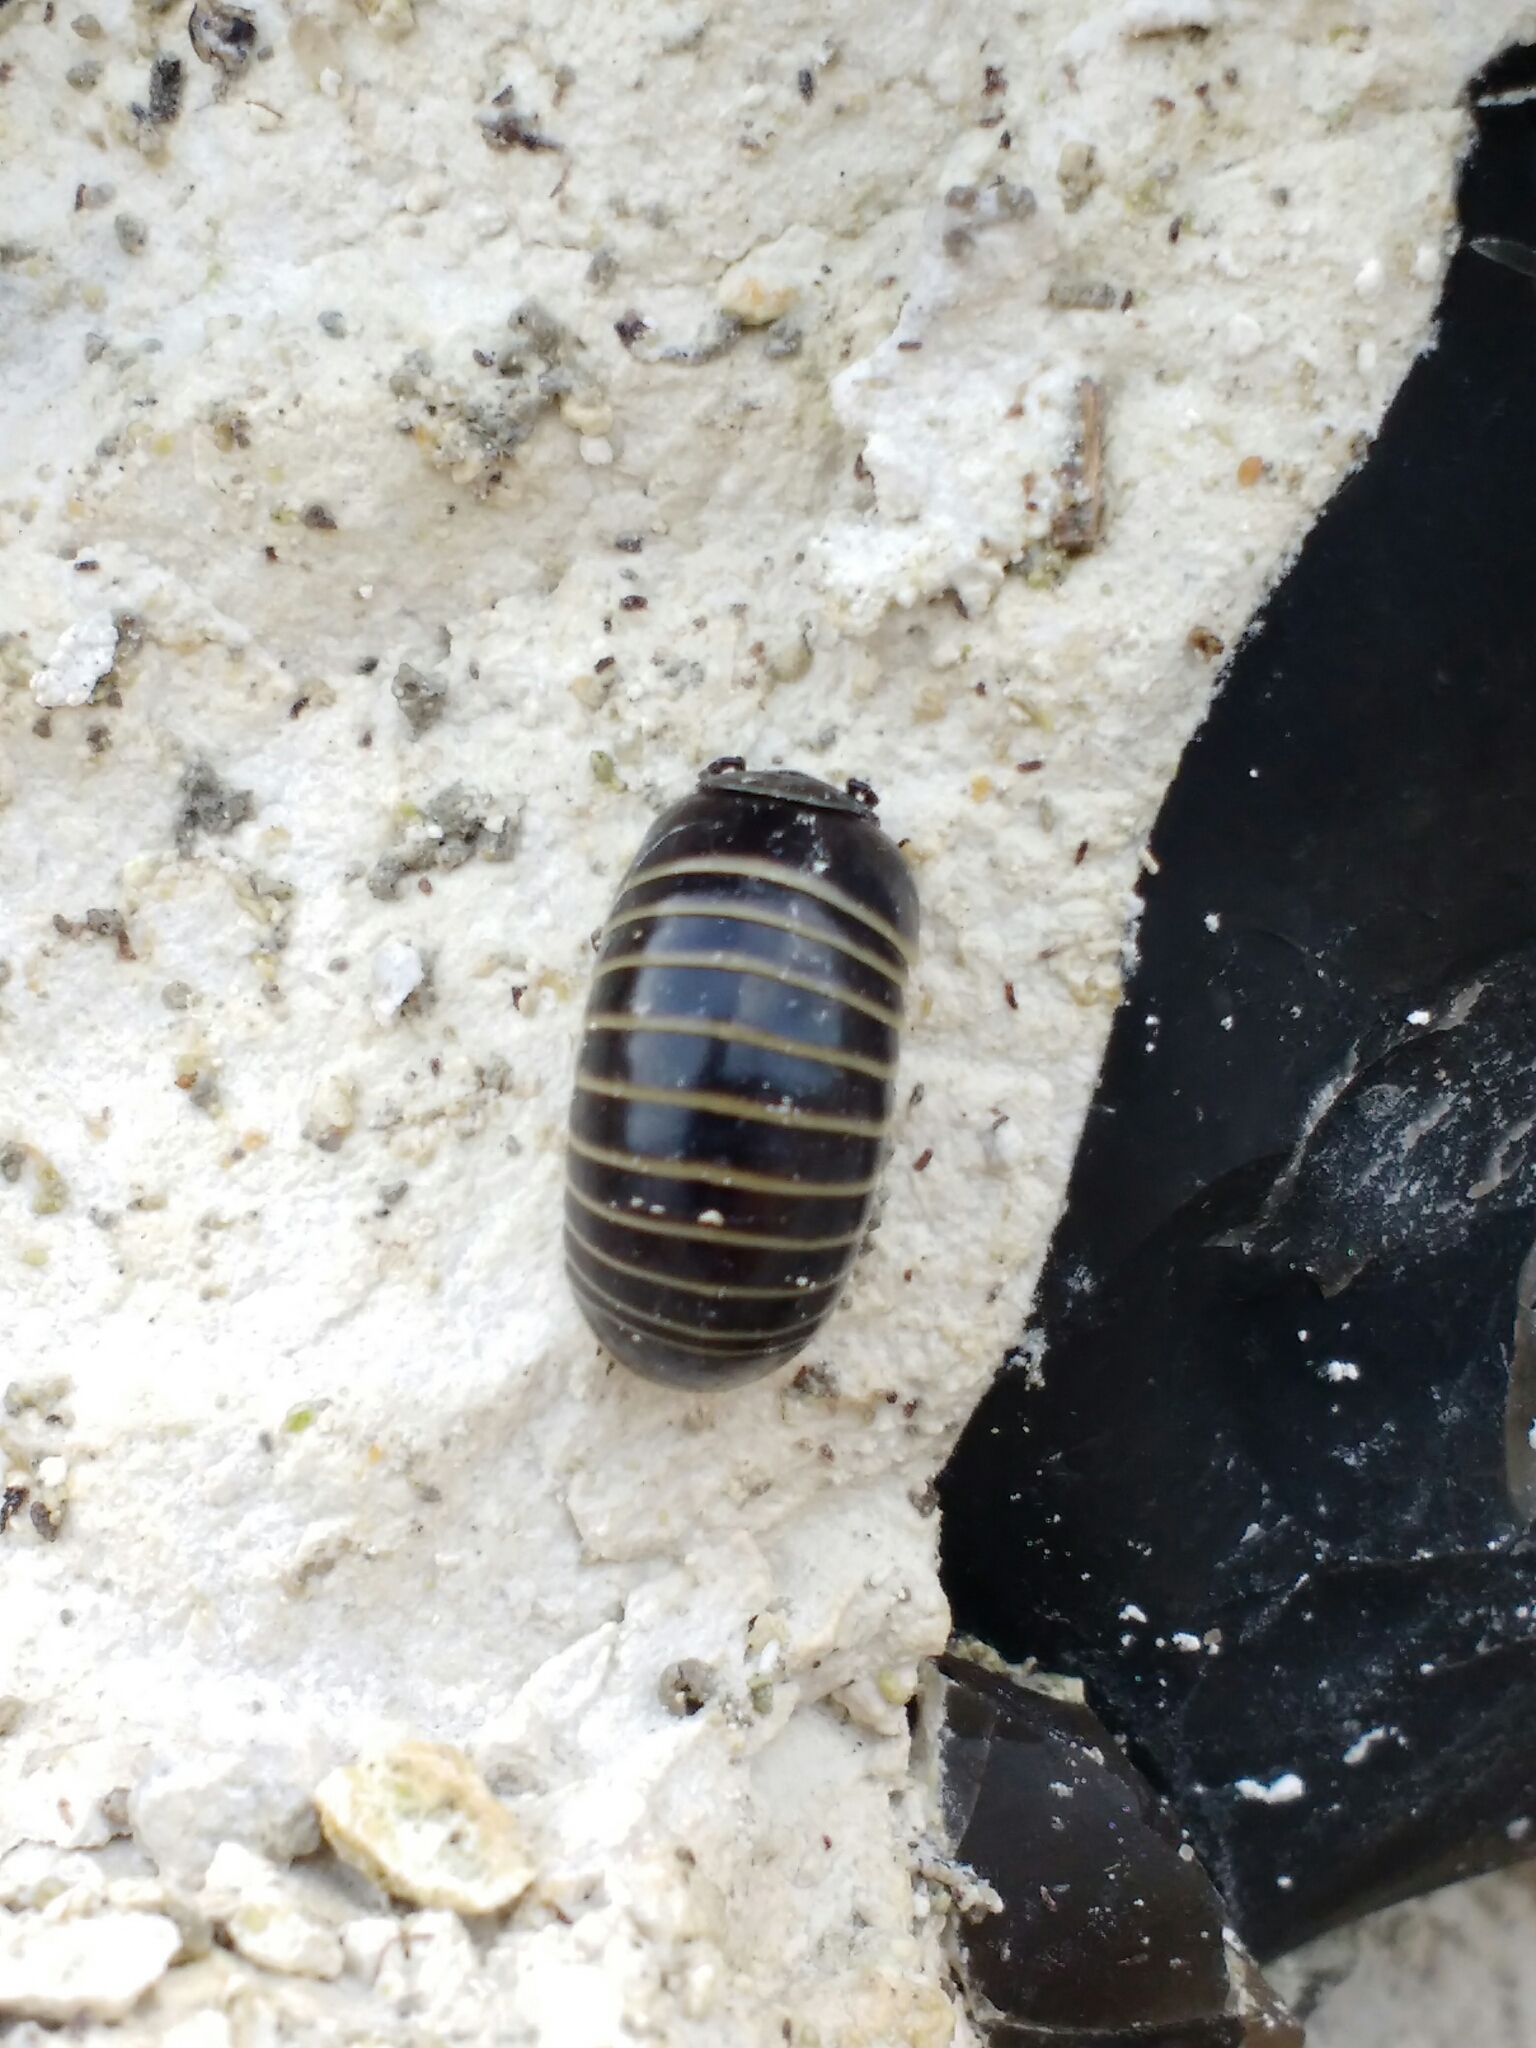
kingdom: Animalia
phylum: Arthropoda
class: Diplopoda
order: Glomerida
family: Glomeridae
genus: Glomeris
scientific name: Glomeris marginata
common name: Bordered pill millipede
